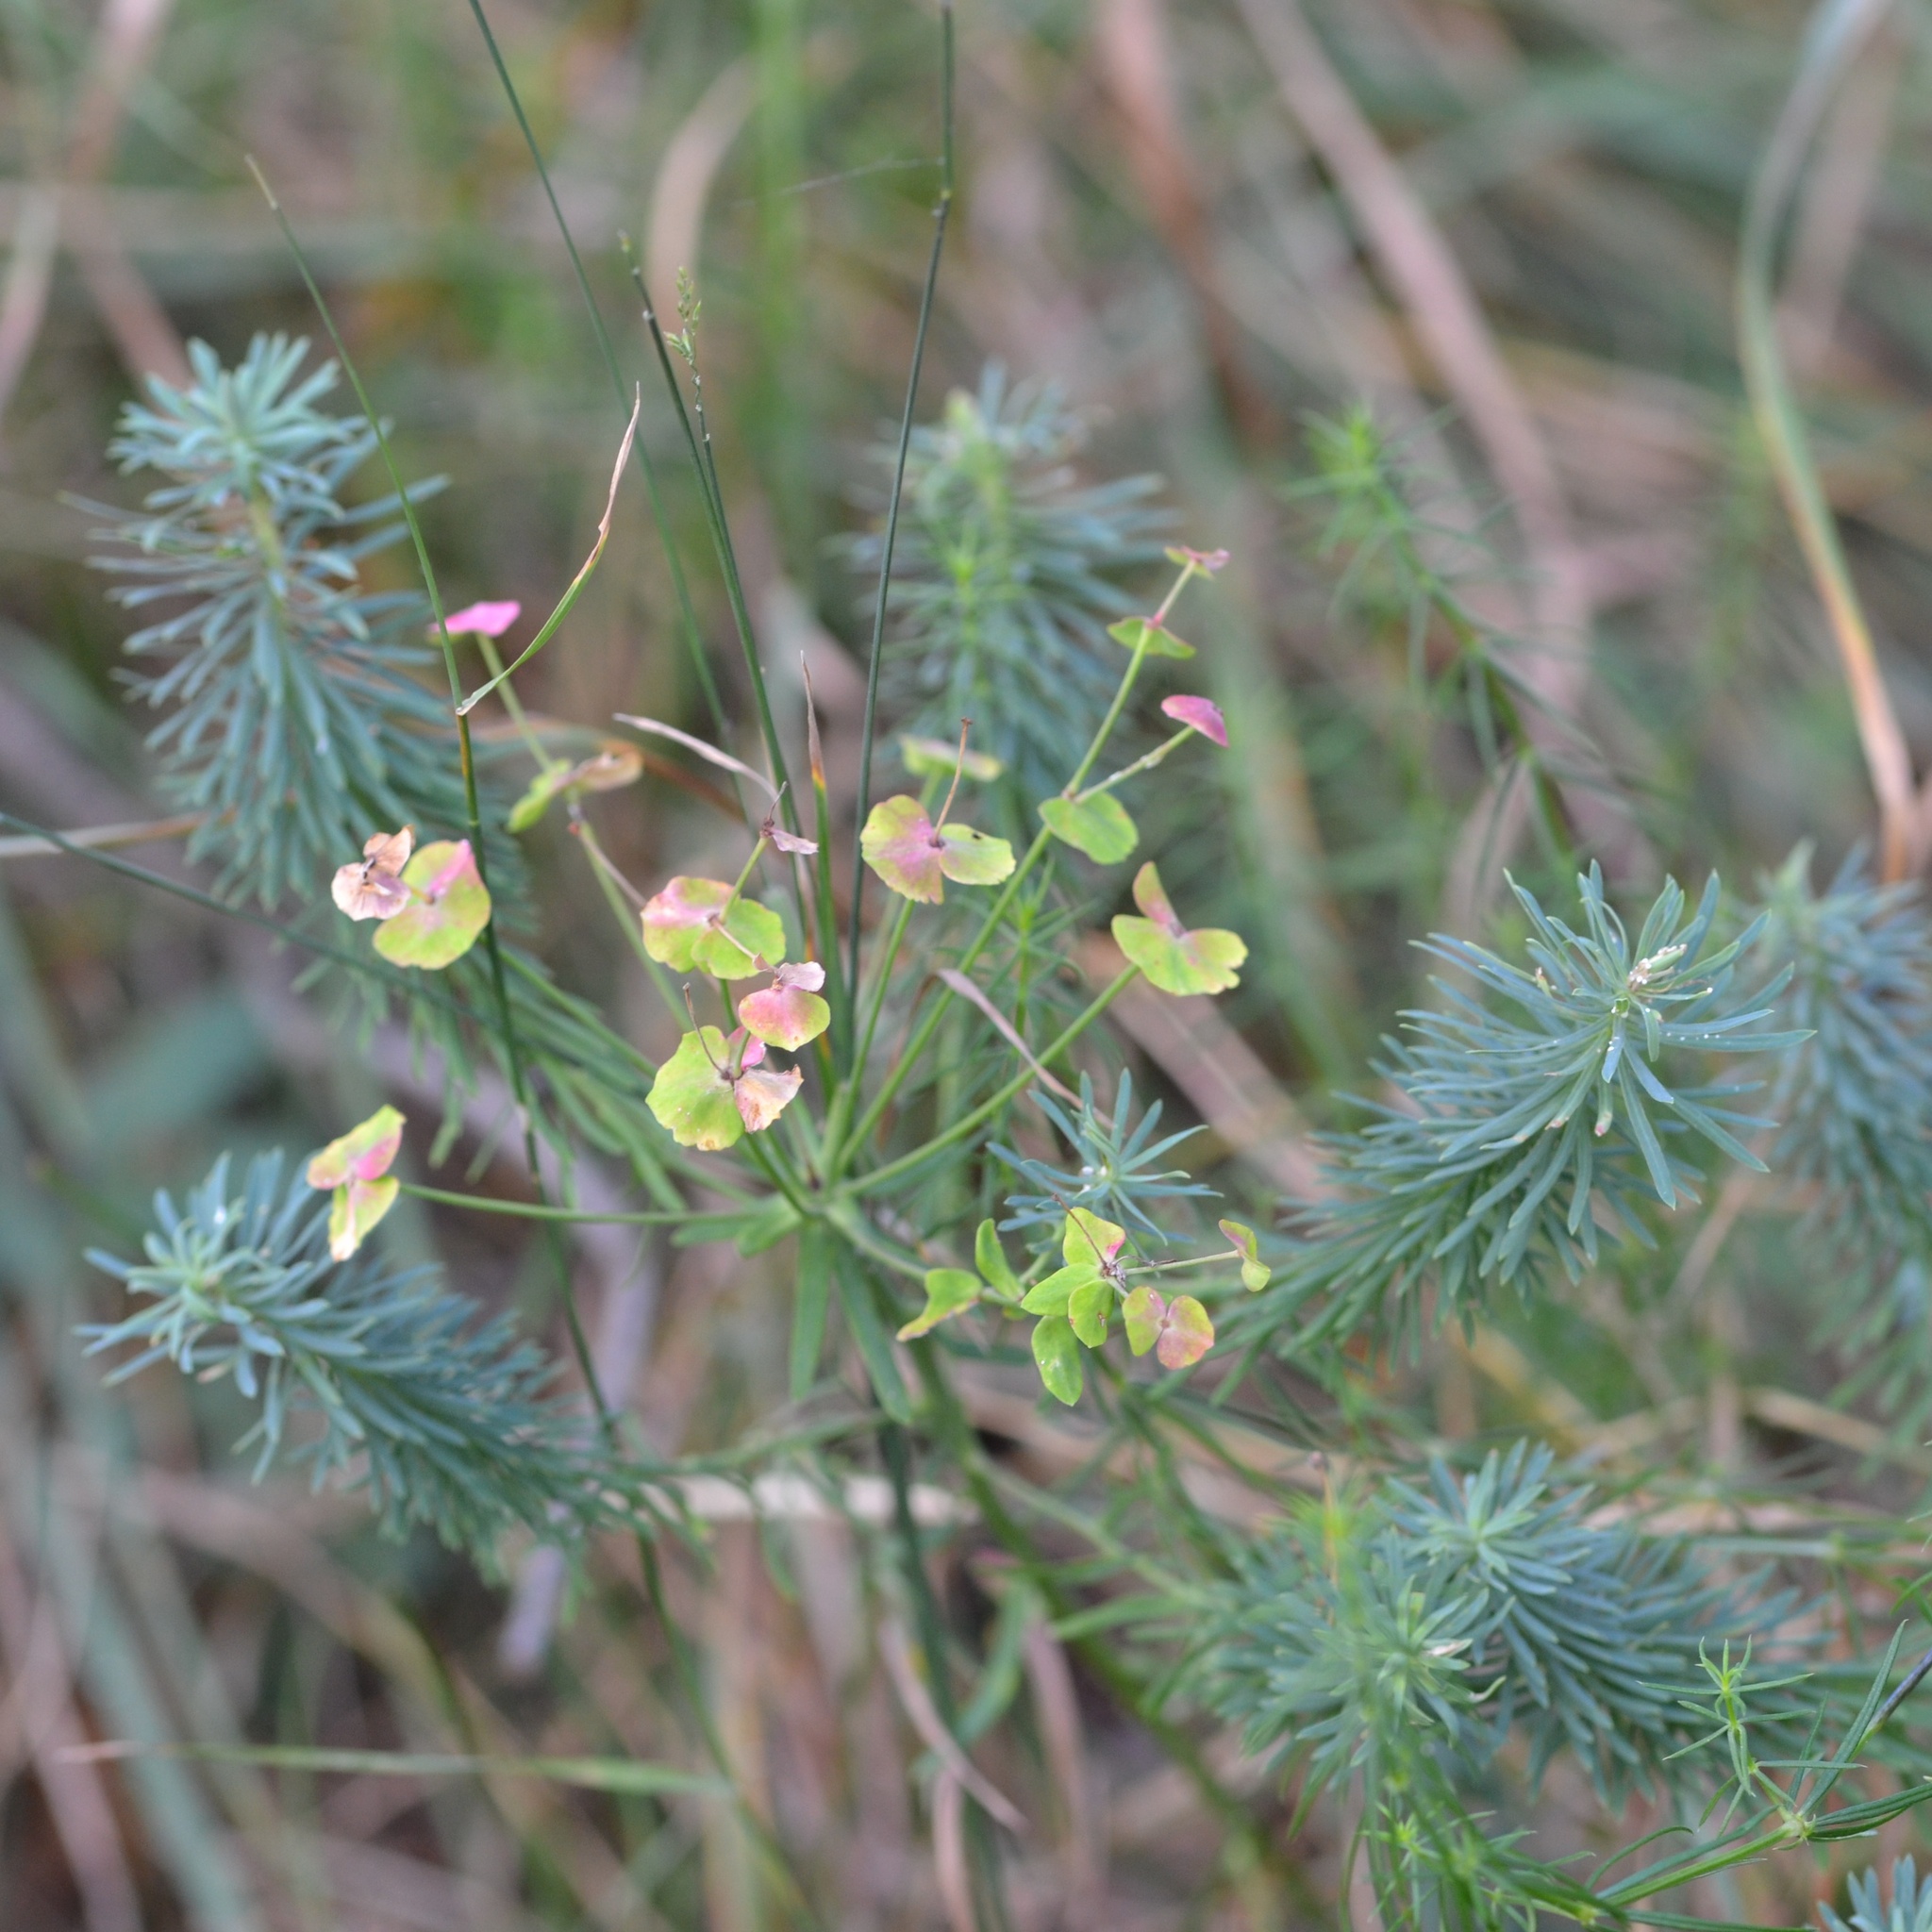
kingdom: Plantae
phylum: Tracheophyta
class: Magnoliopsida
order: Malpighiales
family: Euphorbiaceae
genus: Euphorbia
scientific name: Euphorbia cyparissias
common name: Cypress spurge
